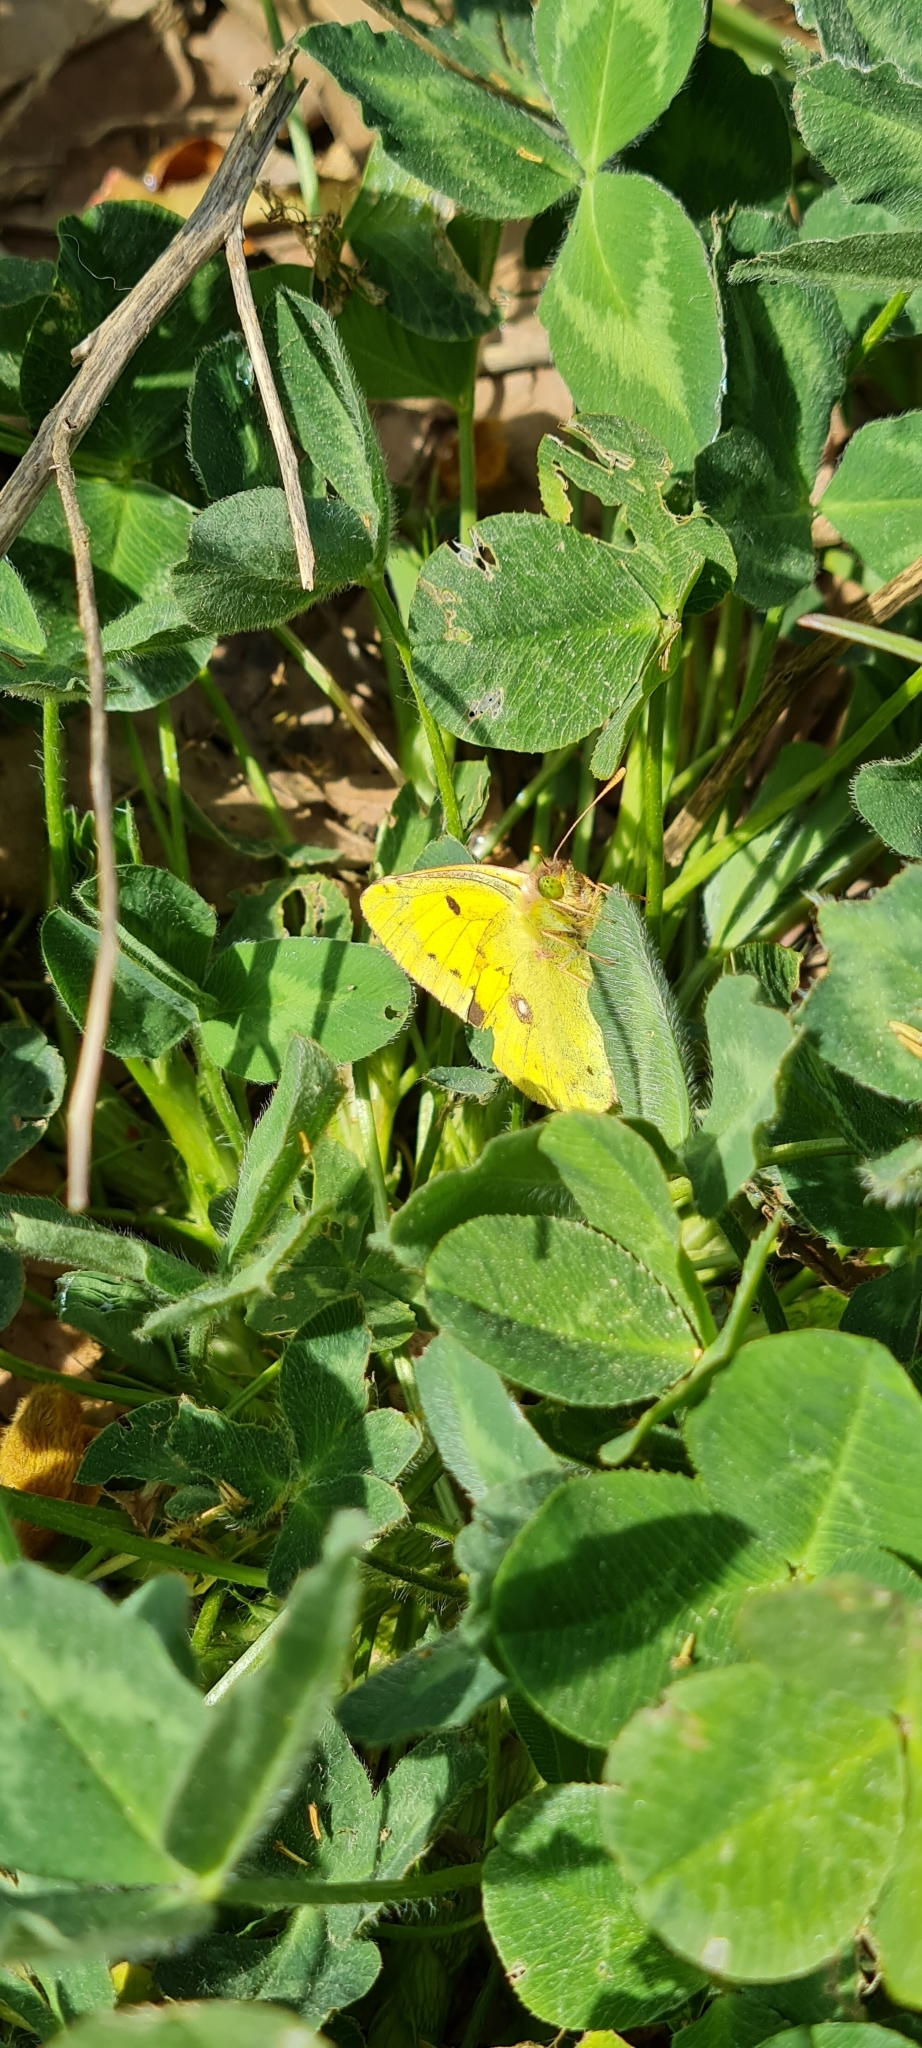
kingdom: Animalia
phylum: Arthropoda
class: Insecta
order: Lepidoptera
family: Pieridae
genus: Colias
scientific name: Colias croceus
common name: Clouded yellow
